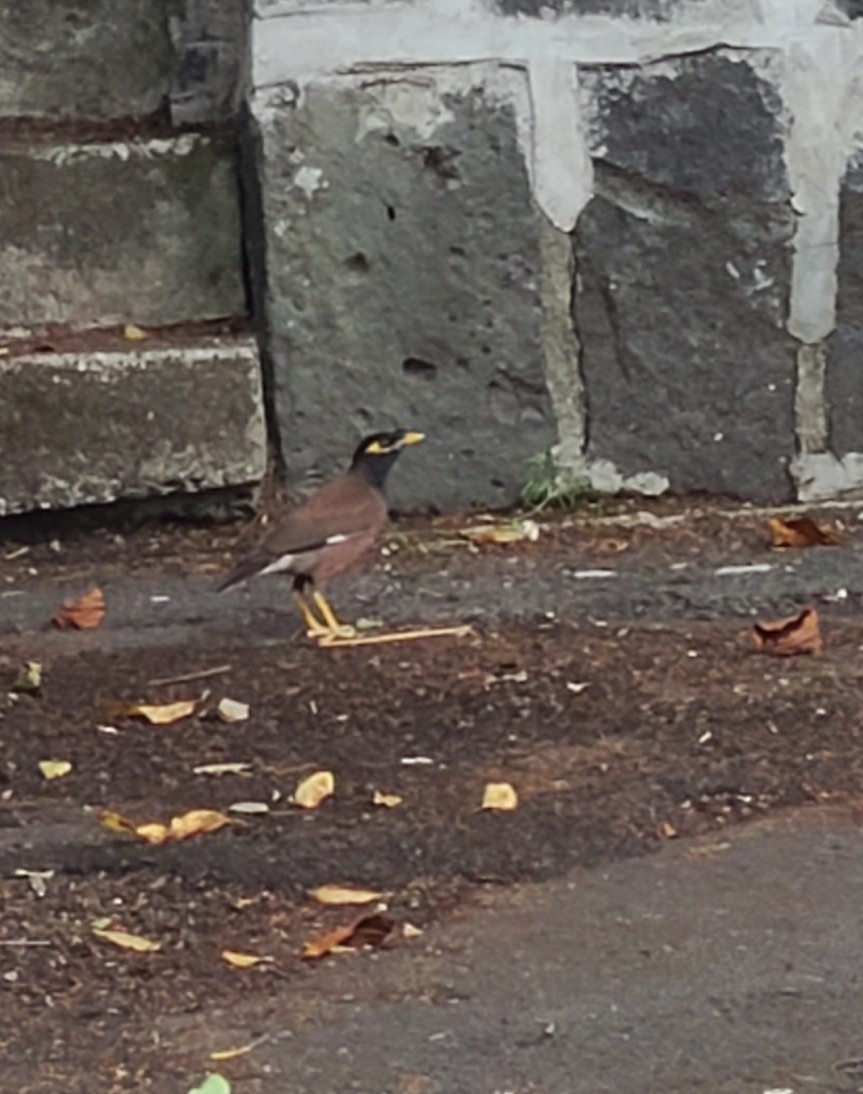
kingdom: Animalia
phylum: Chordata
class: Aves
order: Passeriformes
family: Sturnidae
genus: Acridotheres
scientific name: Acridotheres tristis
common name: Common myna
